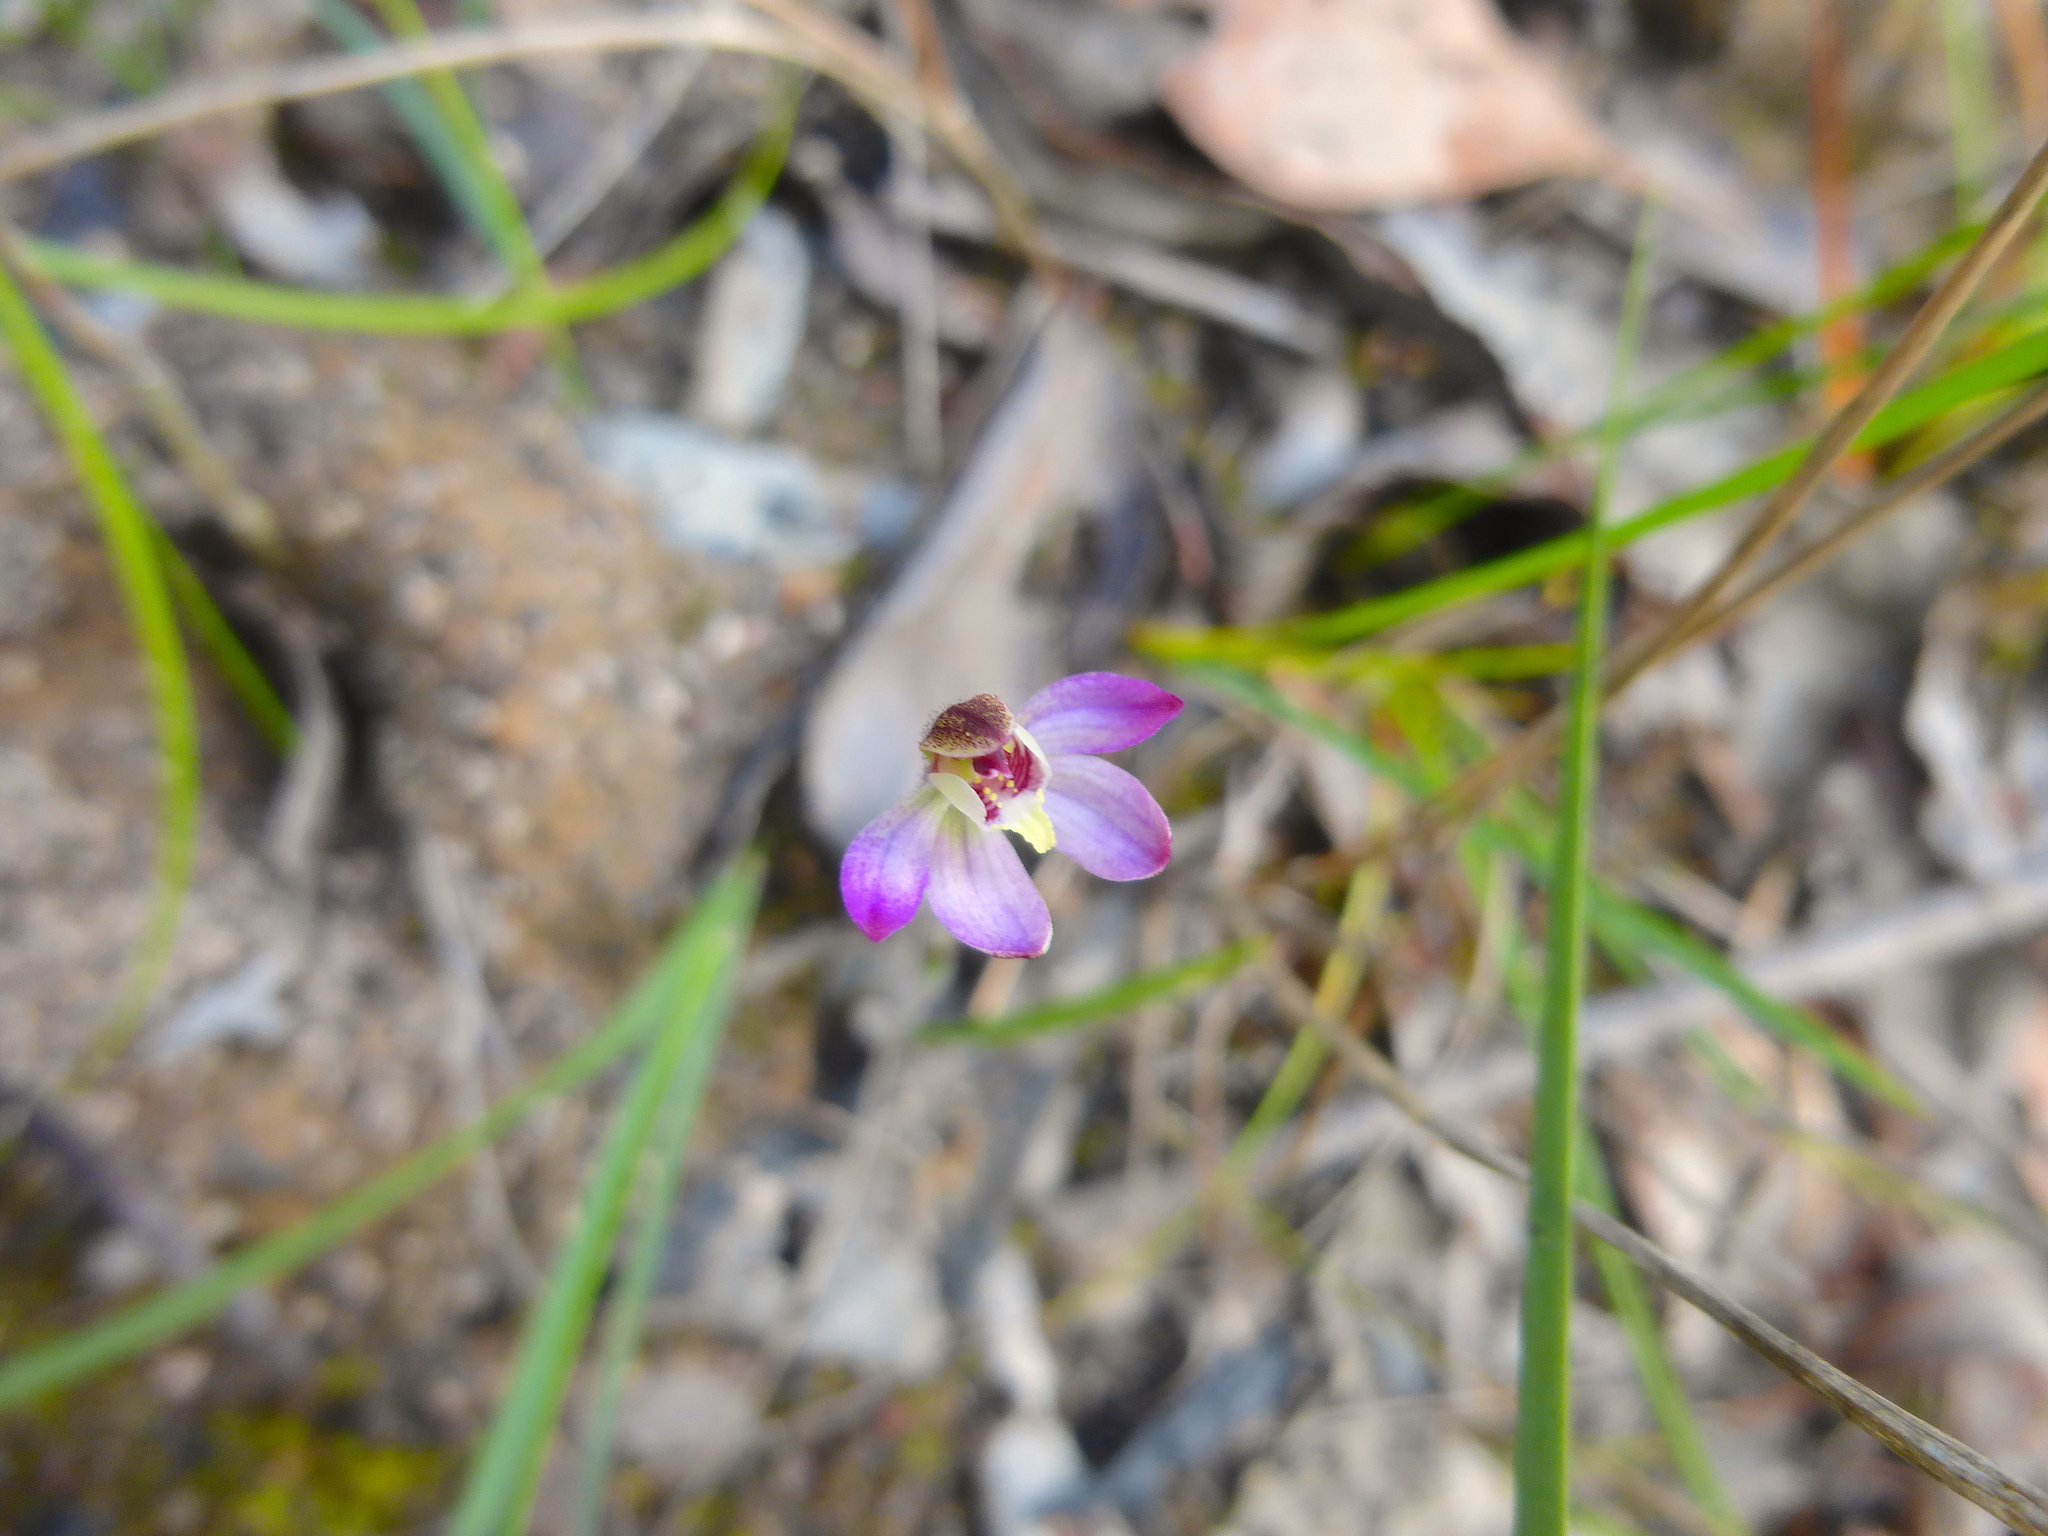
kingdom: Plantae
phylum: Tracheophyta
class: Liliopsida
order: Asparagales
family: Orchidaceae
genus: Caladenia
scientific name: Caladenia pusilla
